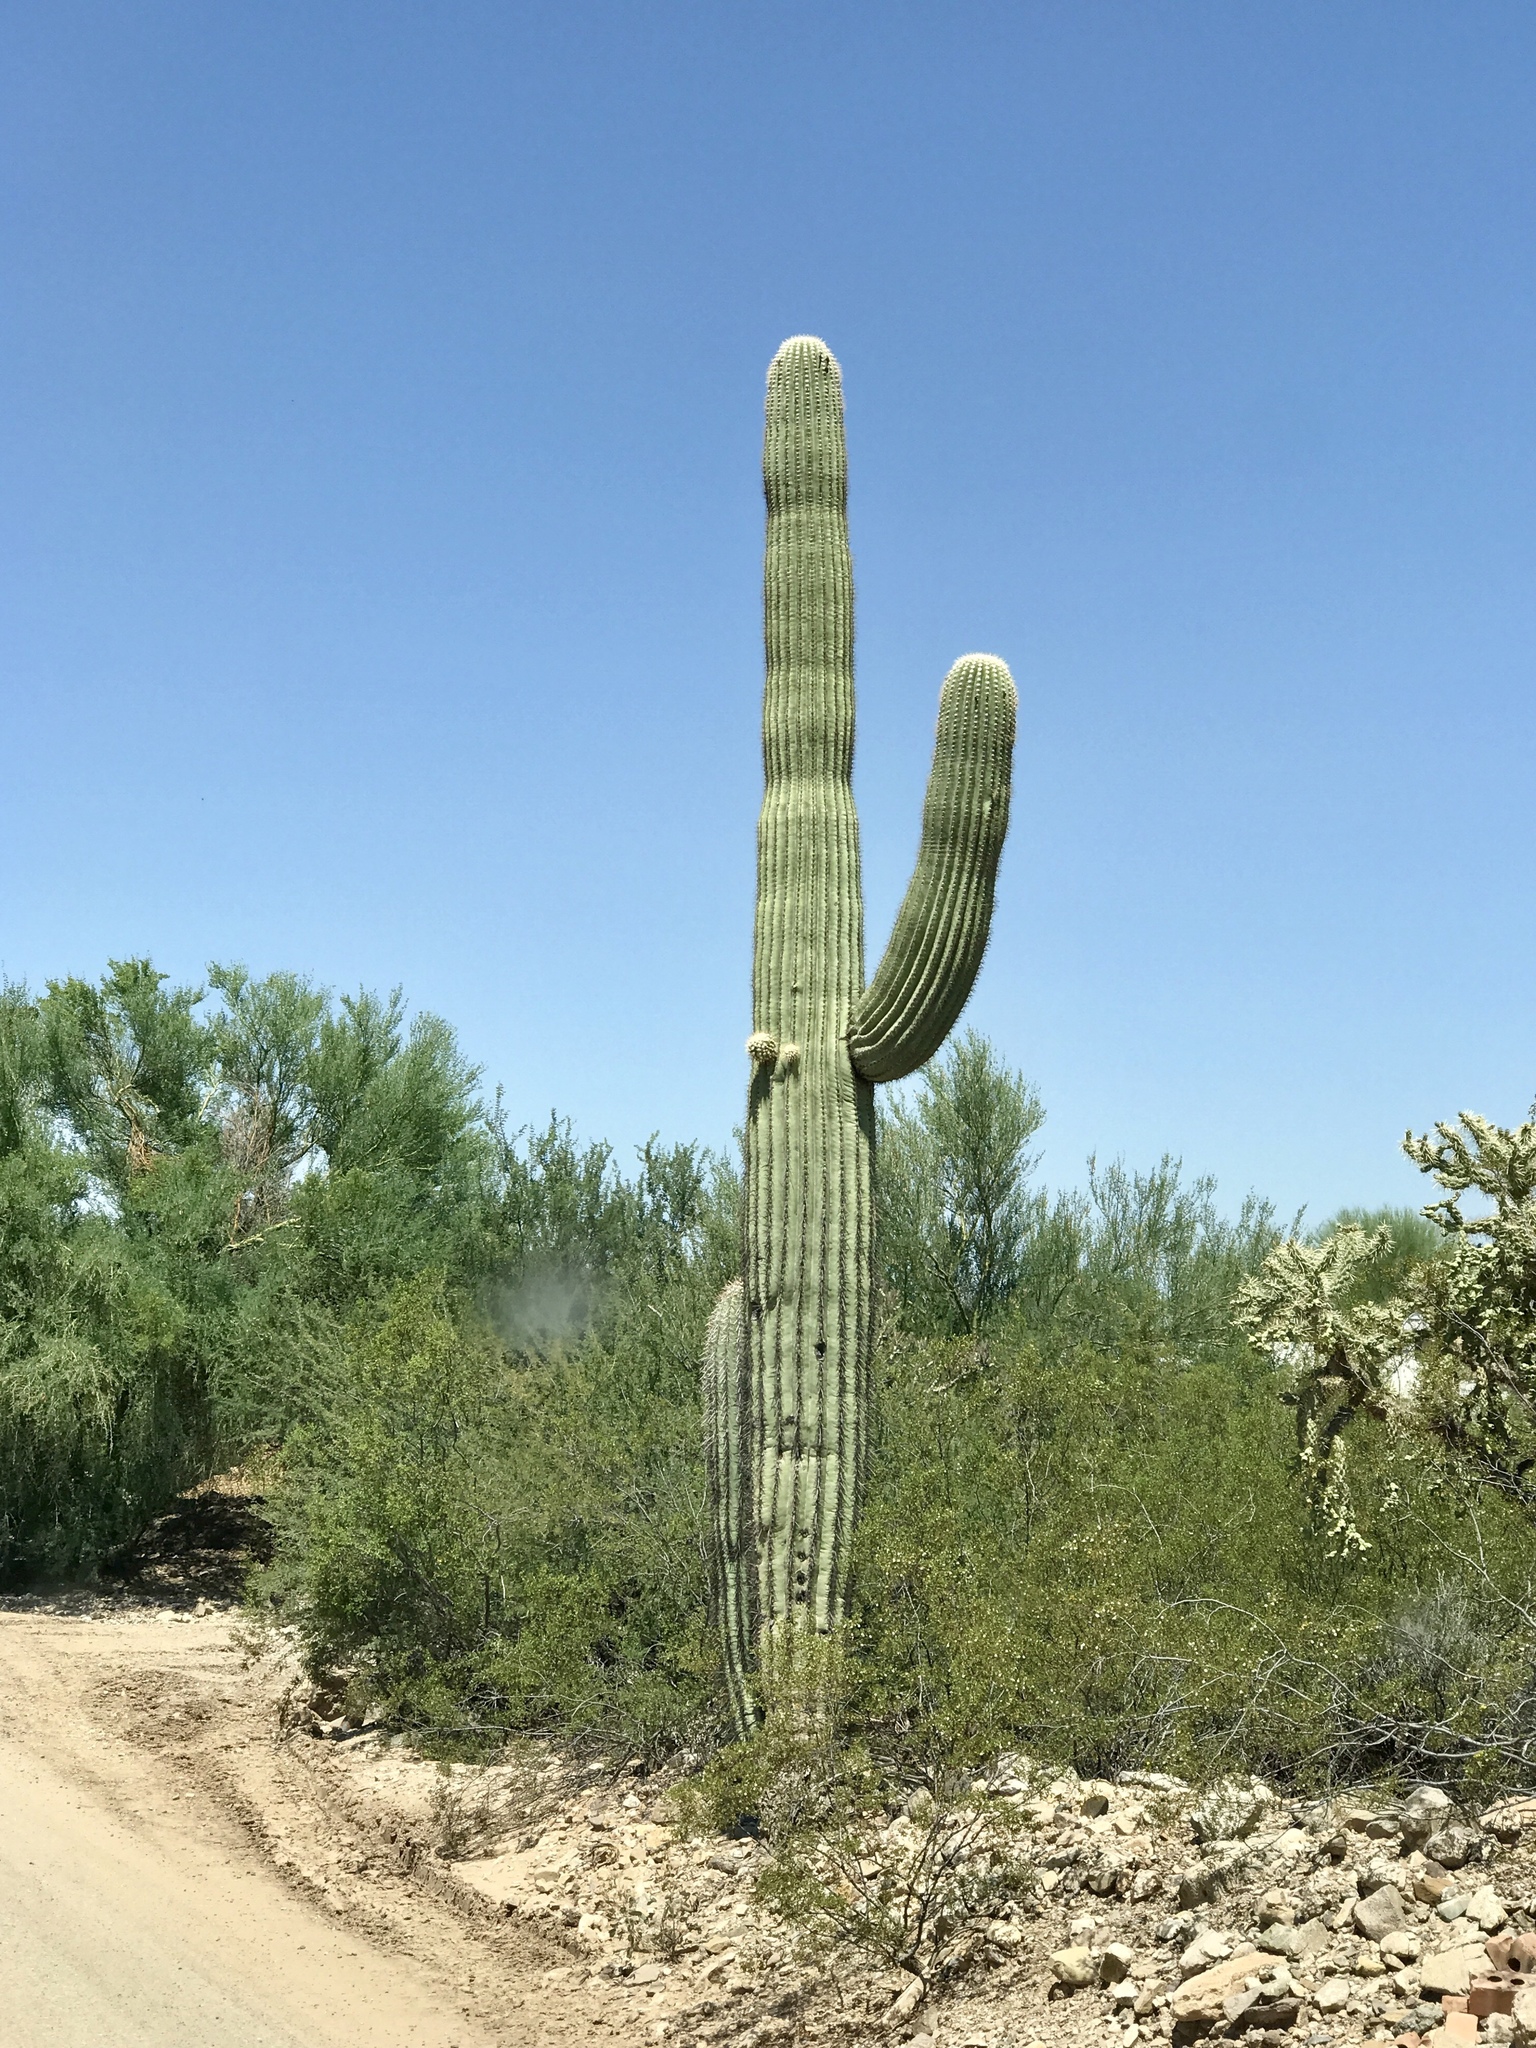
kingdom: Plantae
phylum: Tracheophyta
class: Magnoliopsida
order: Caryophyllales
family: Cactaceae
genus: Carnegiea
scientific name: Carnegiea gigantea
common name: Saguaro
